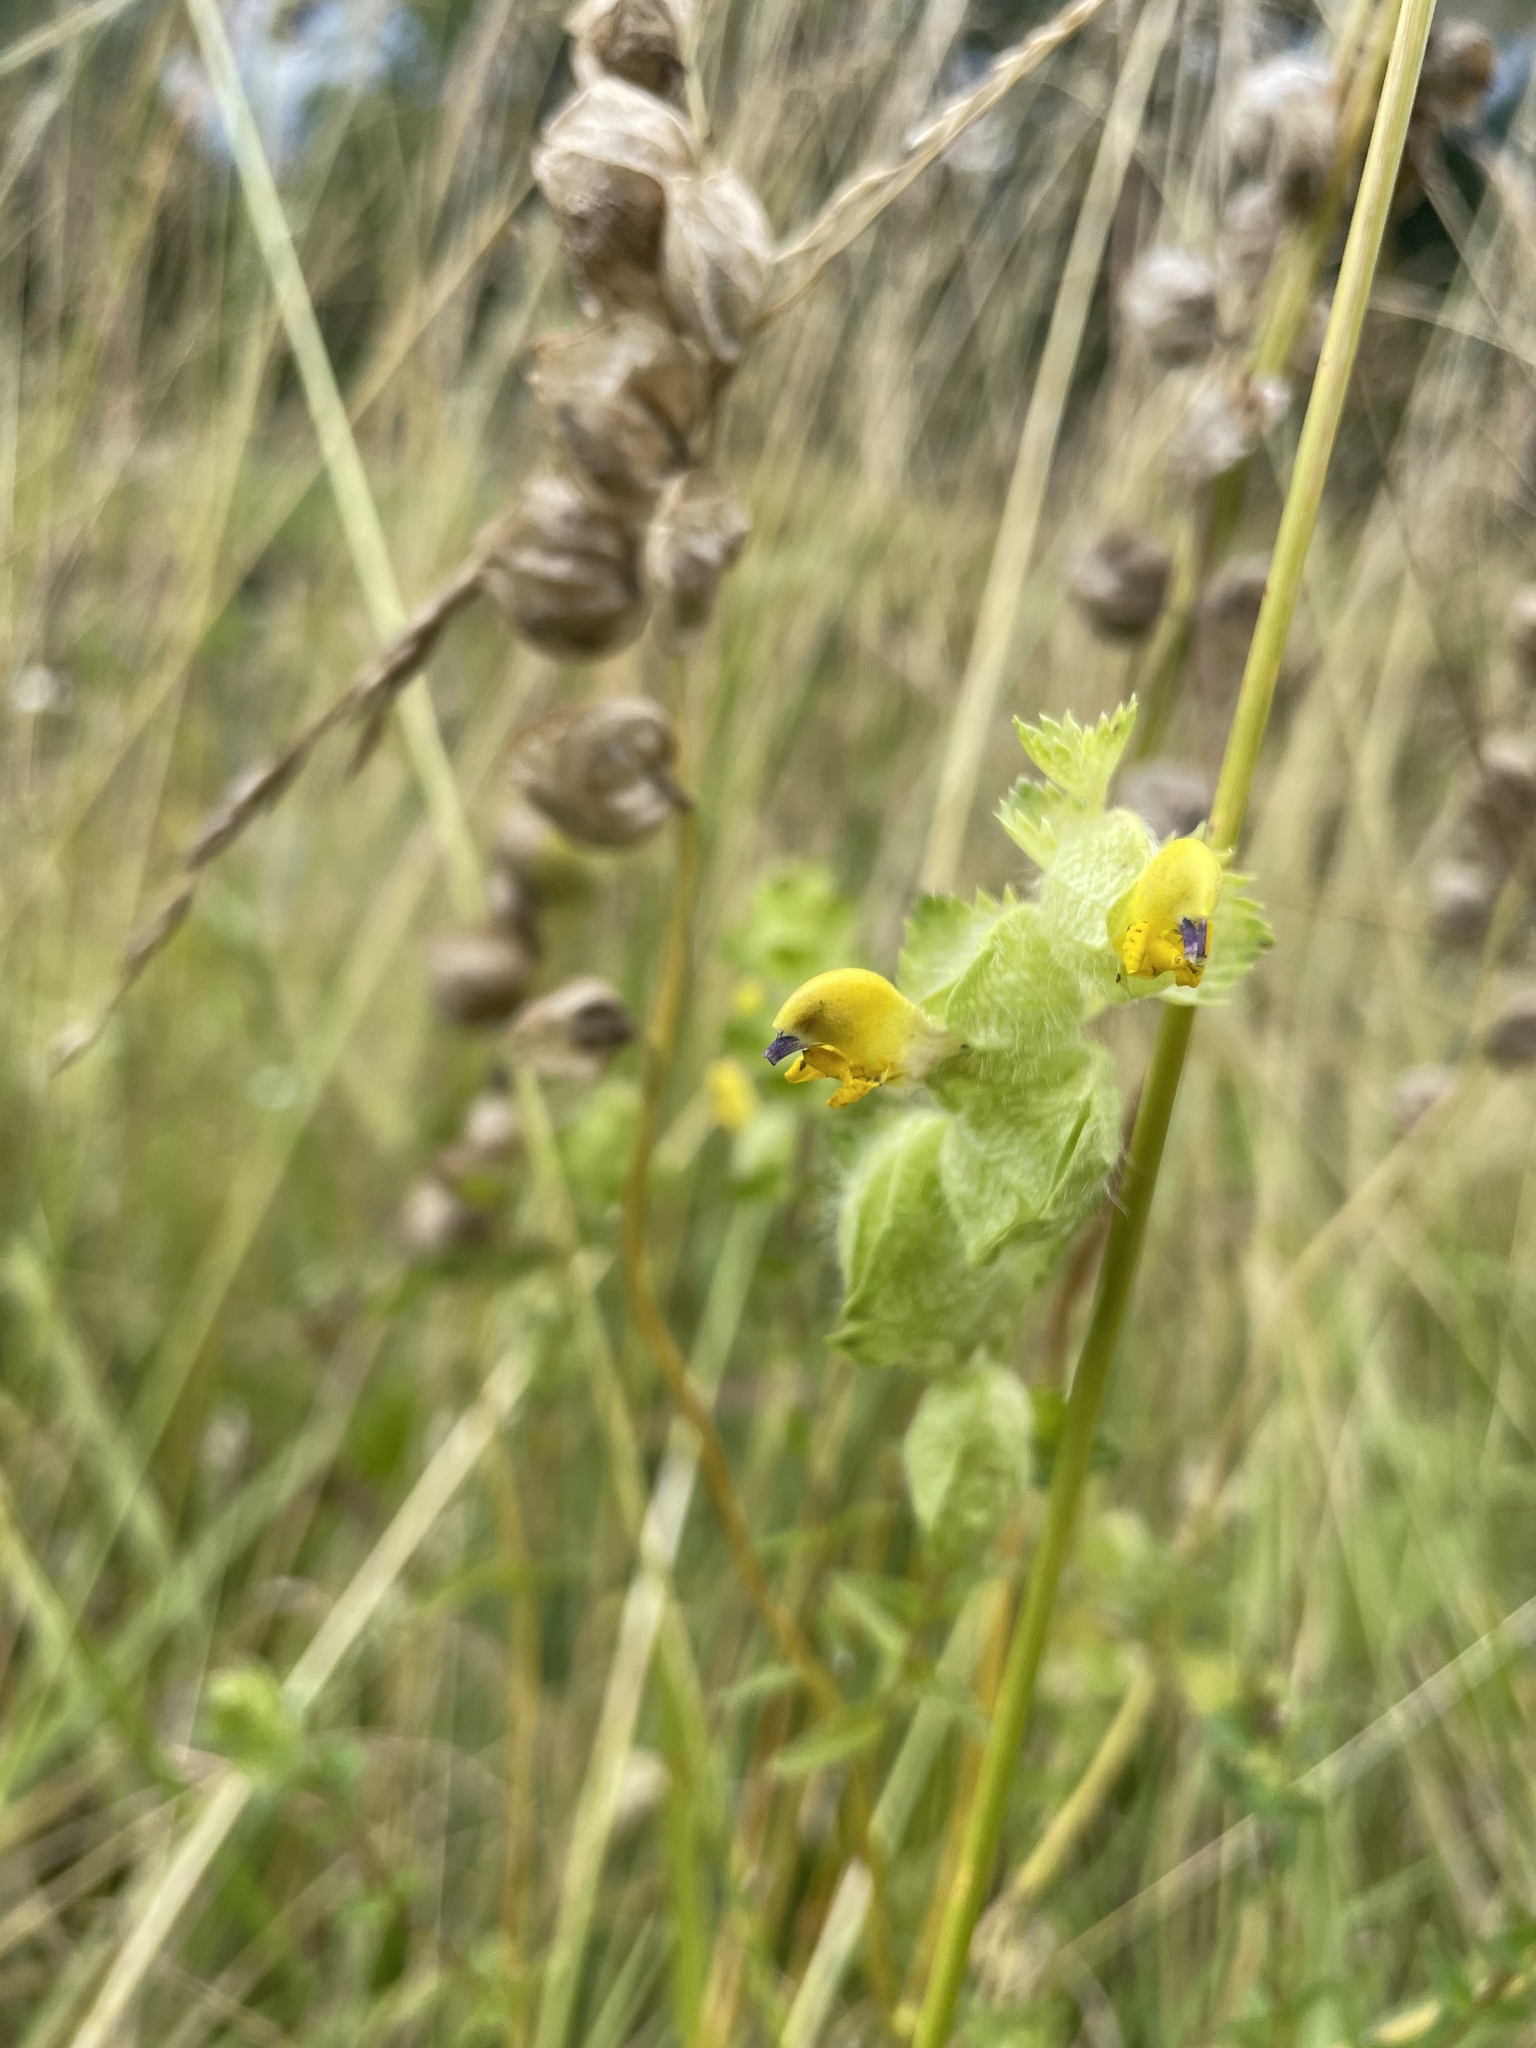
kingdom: Plantae
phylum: Tracheophyta
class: Magnoliopsida
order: Lamiales
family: Orobanchaceae
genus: Rhinanthus
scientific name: Rhinanthus alectorolophus
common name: Greater yellow-rattle
